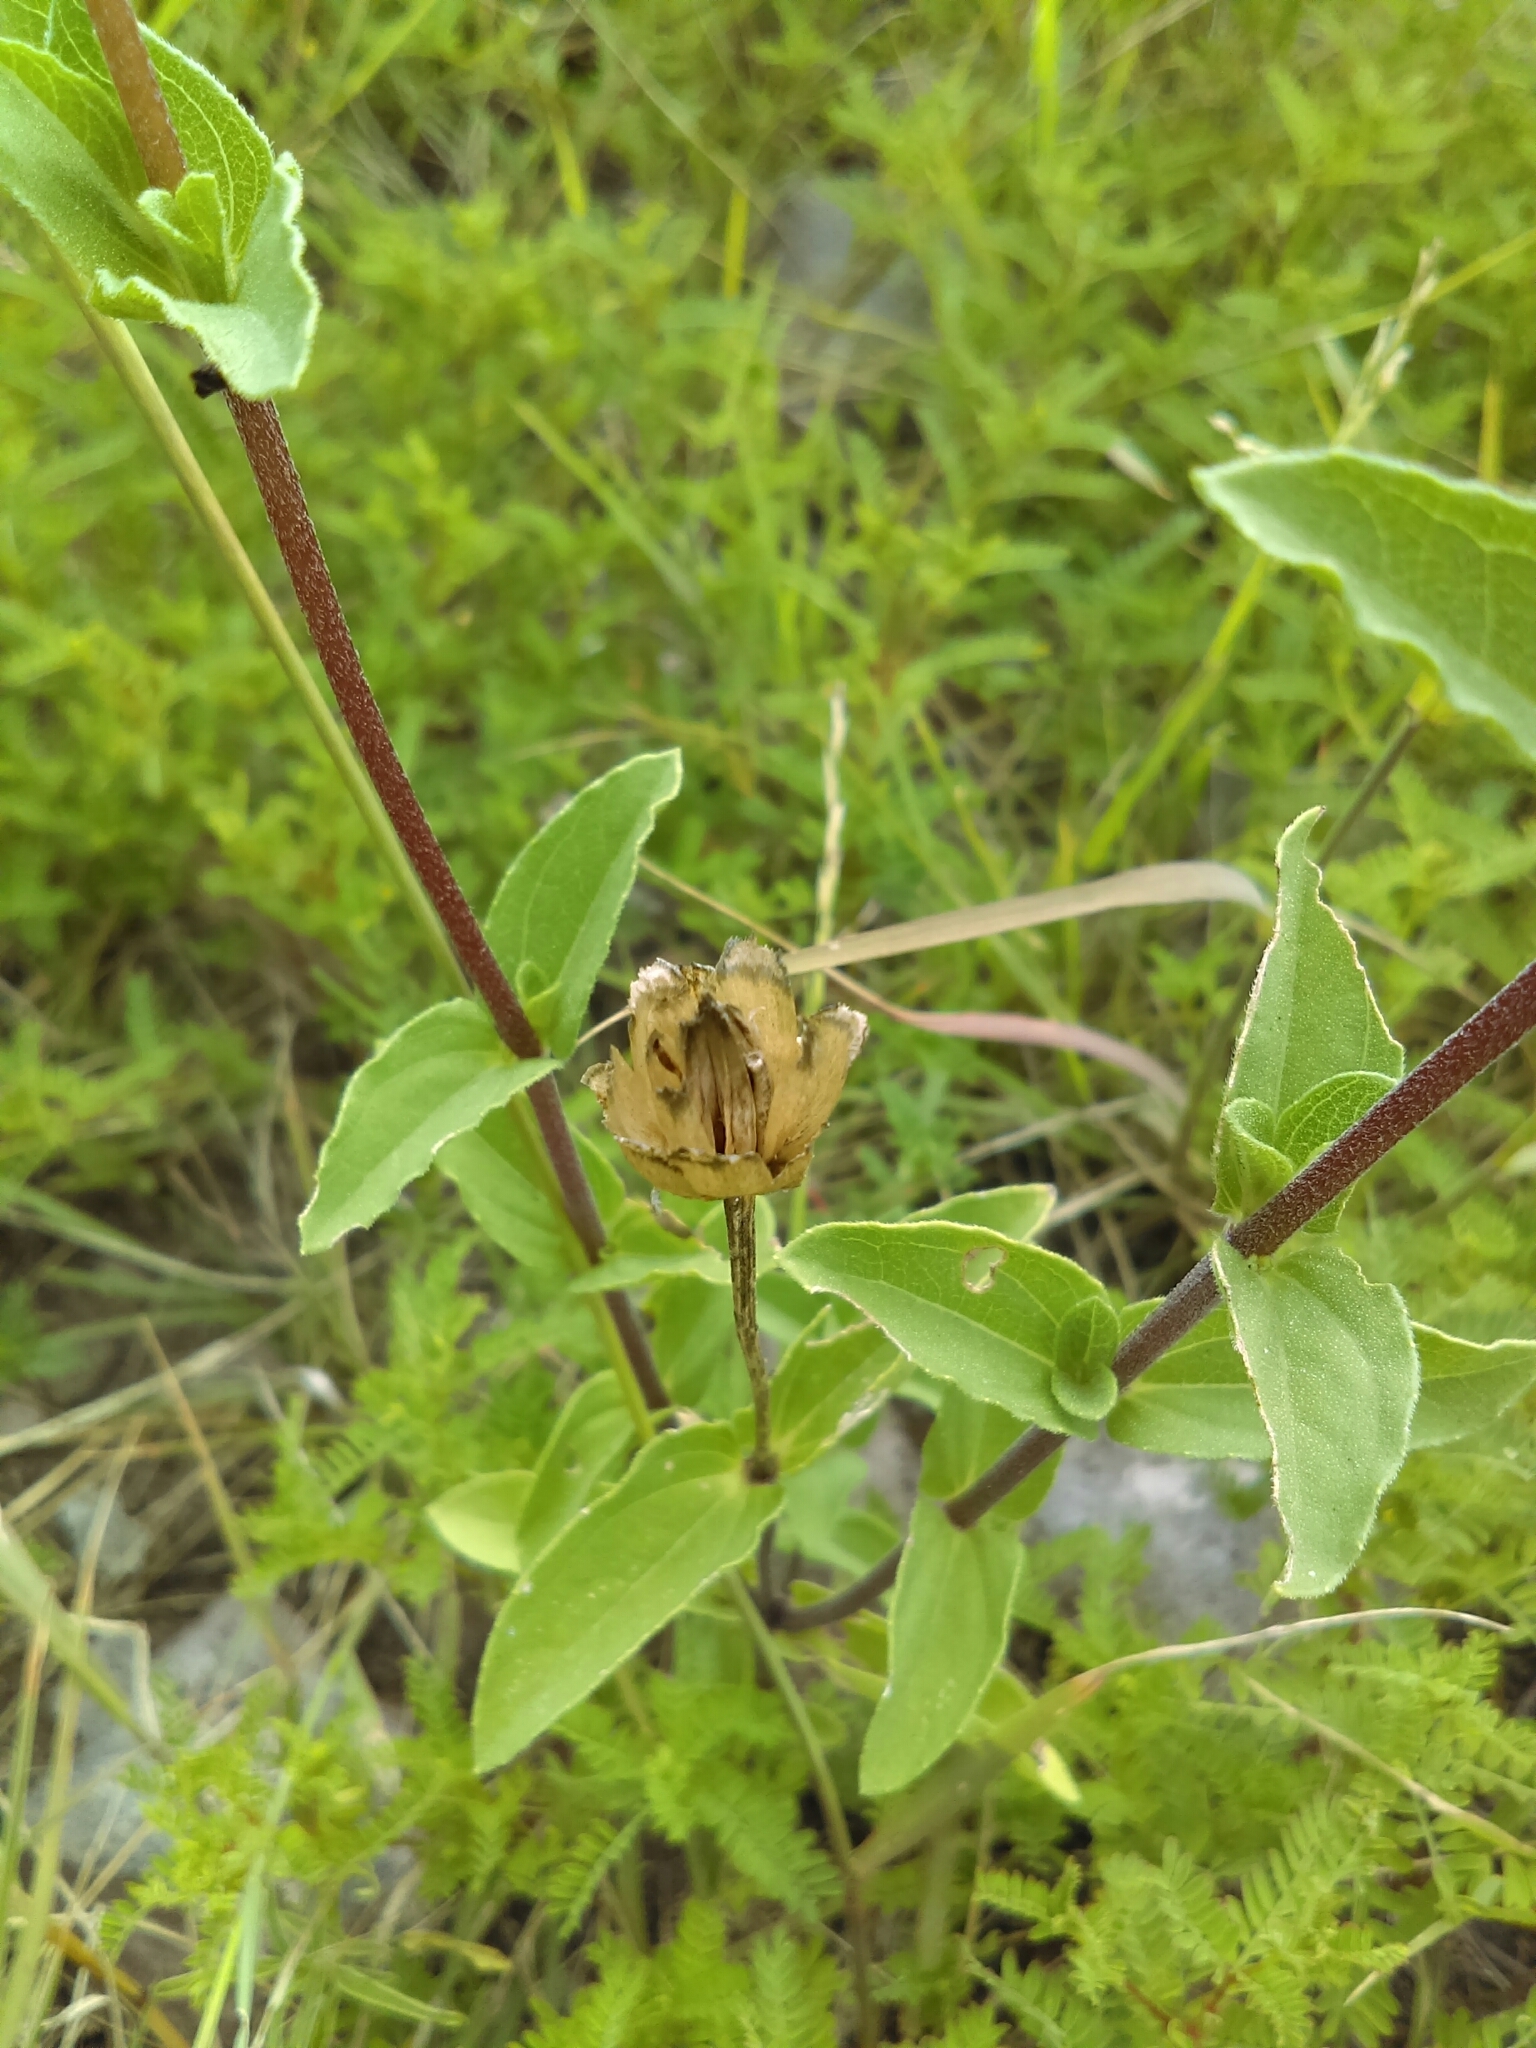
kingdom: Plantae
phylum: Tracheophyta
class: Magnoliopsida
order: Asterales
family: Asteraceae
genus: Zinnia
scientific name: Zinnia peruviana
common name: Peruvian zinnia
